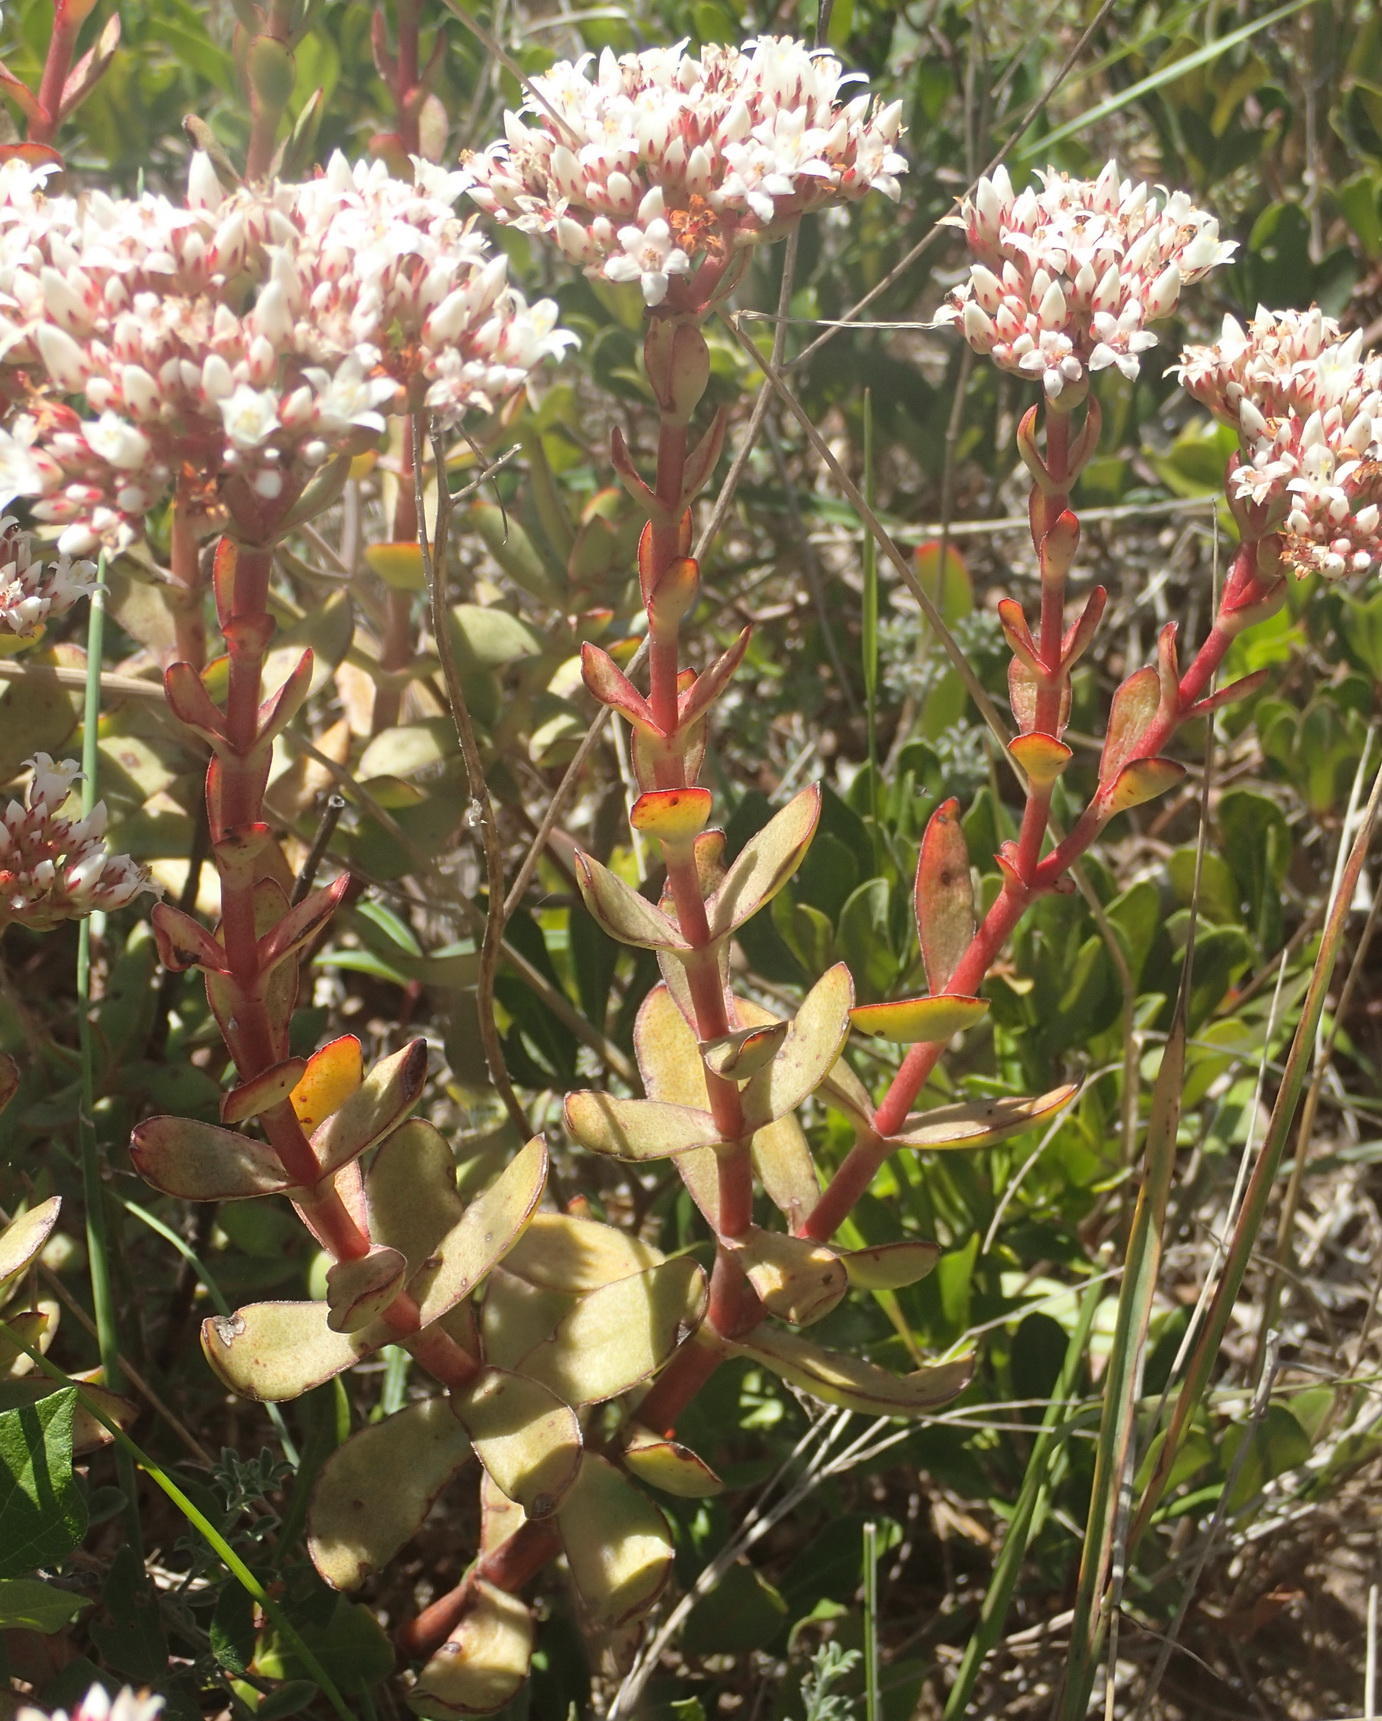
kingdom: Plantae
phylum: Tracheophyta
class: Magnoliopsida
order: Saxifragales
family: Crassulaceae
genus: Crassula
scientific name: Crassula rubricaulis
